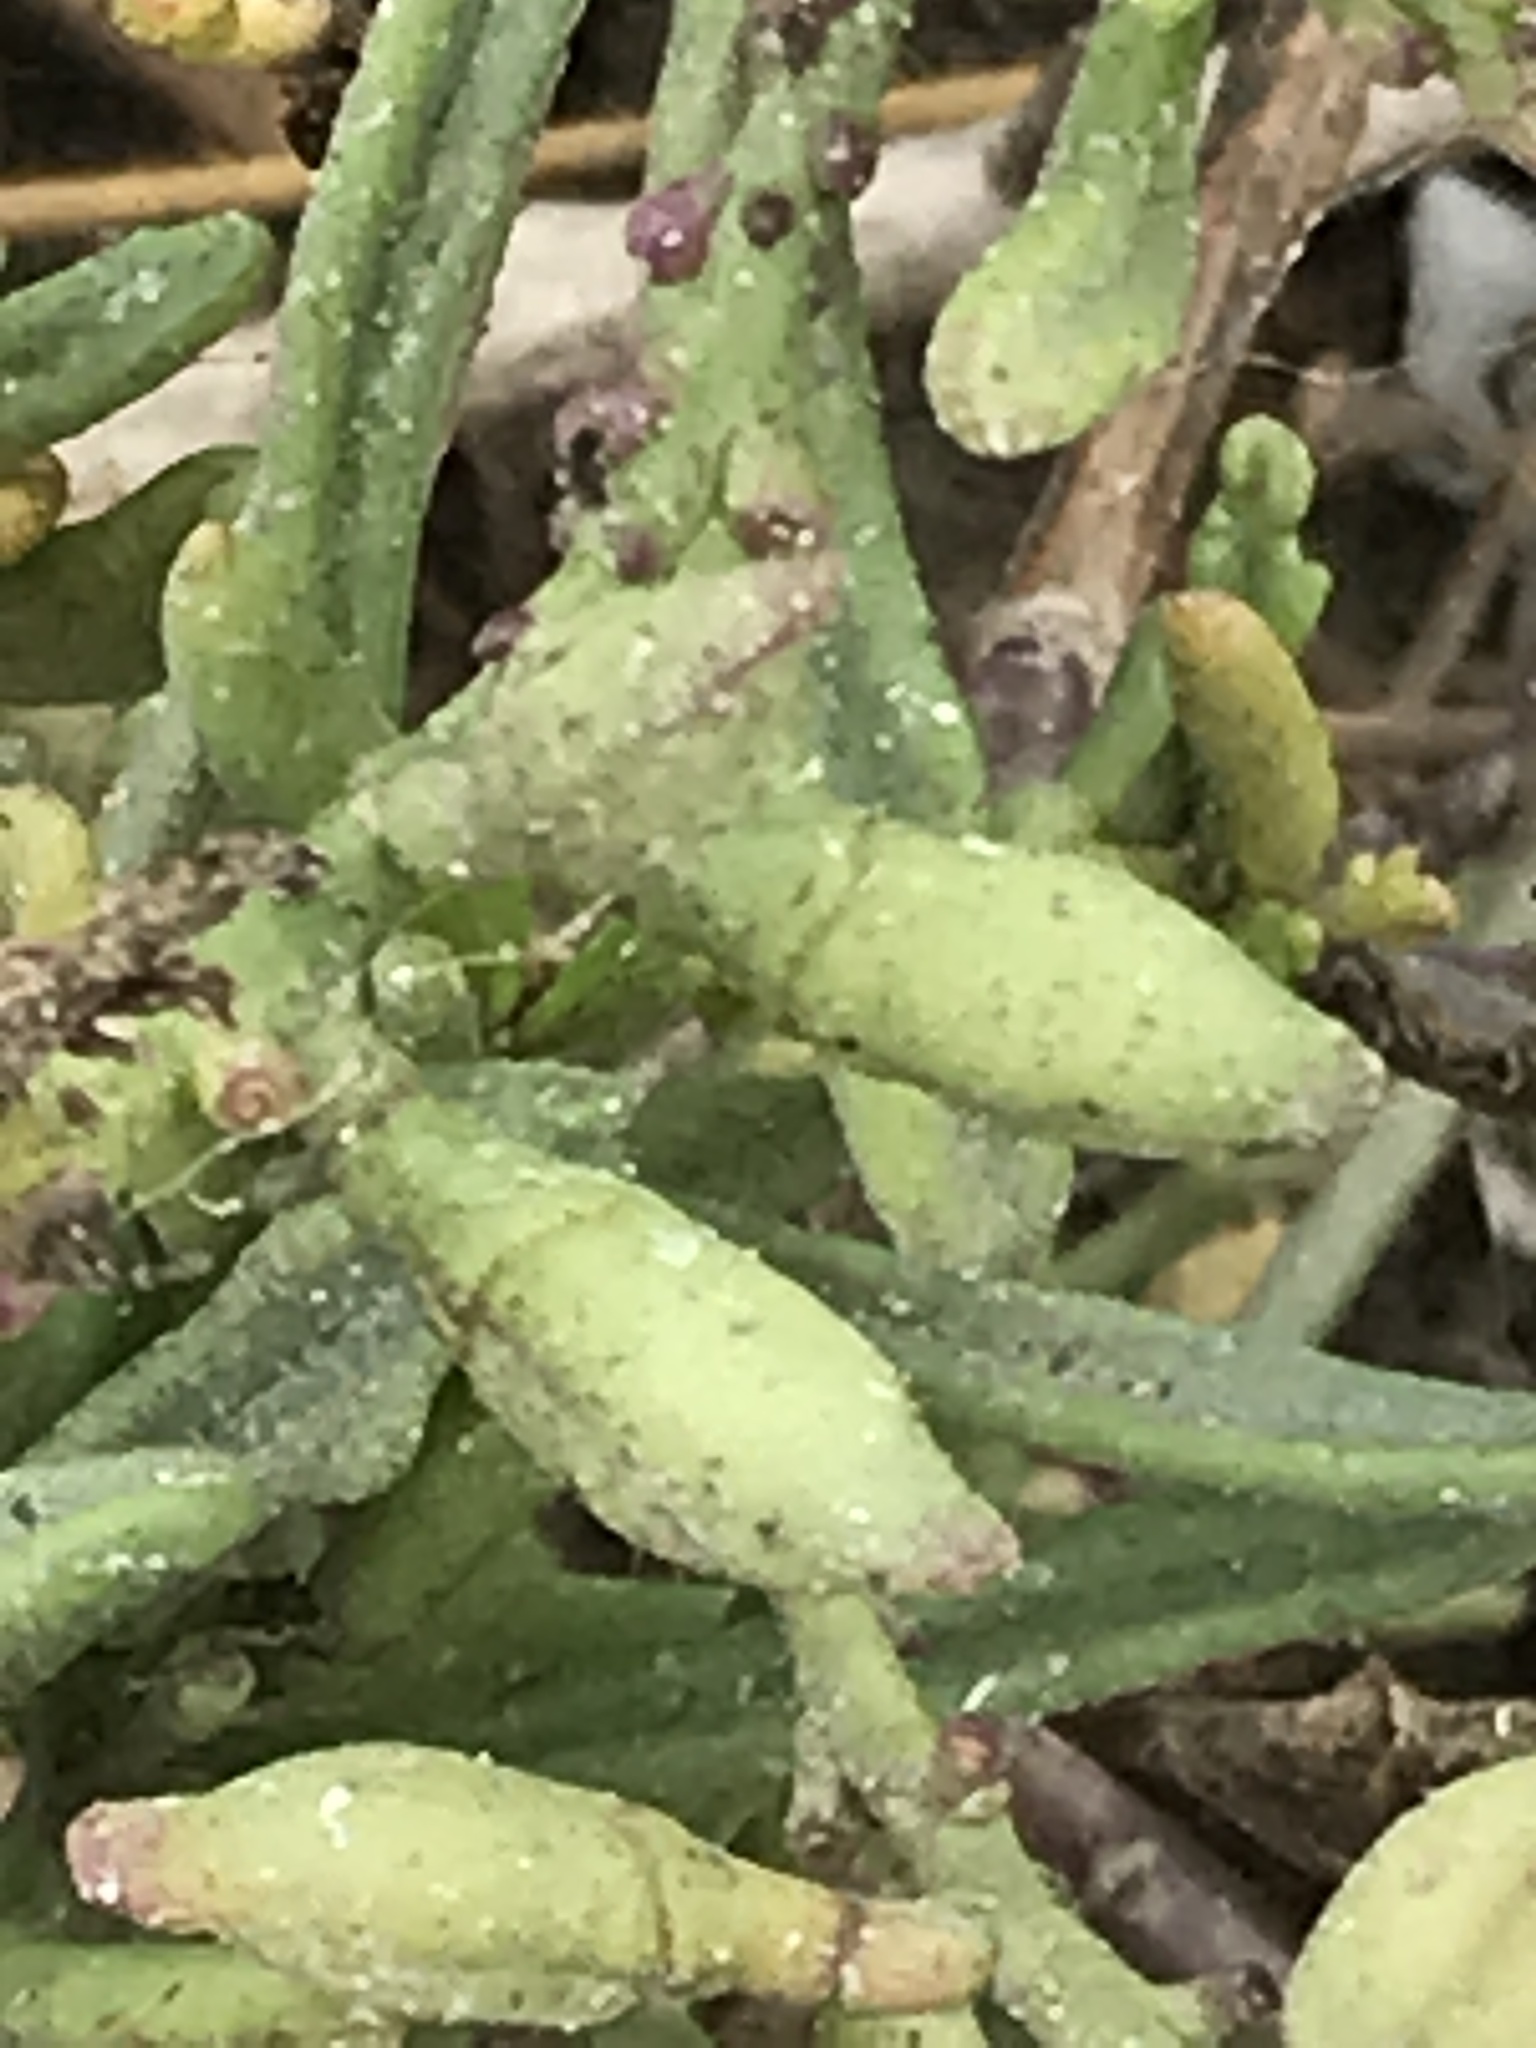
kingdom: Plantae
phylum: Tracheophyta
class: Magnoliopsida
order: Brassicales
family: Brassicaceae
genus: Cakile
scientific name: Cakile maritima
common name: Sea rocket
